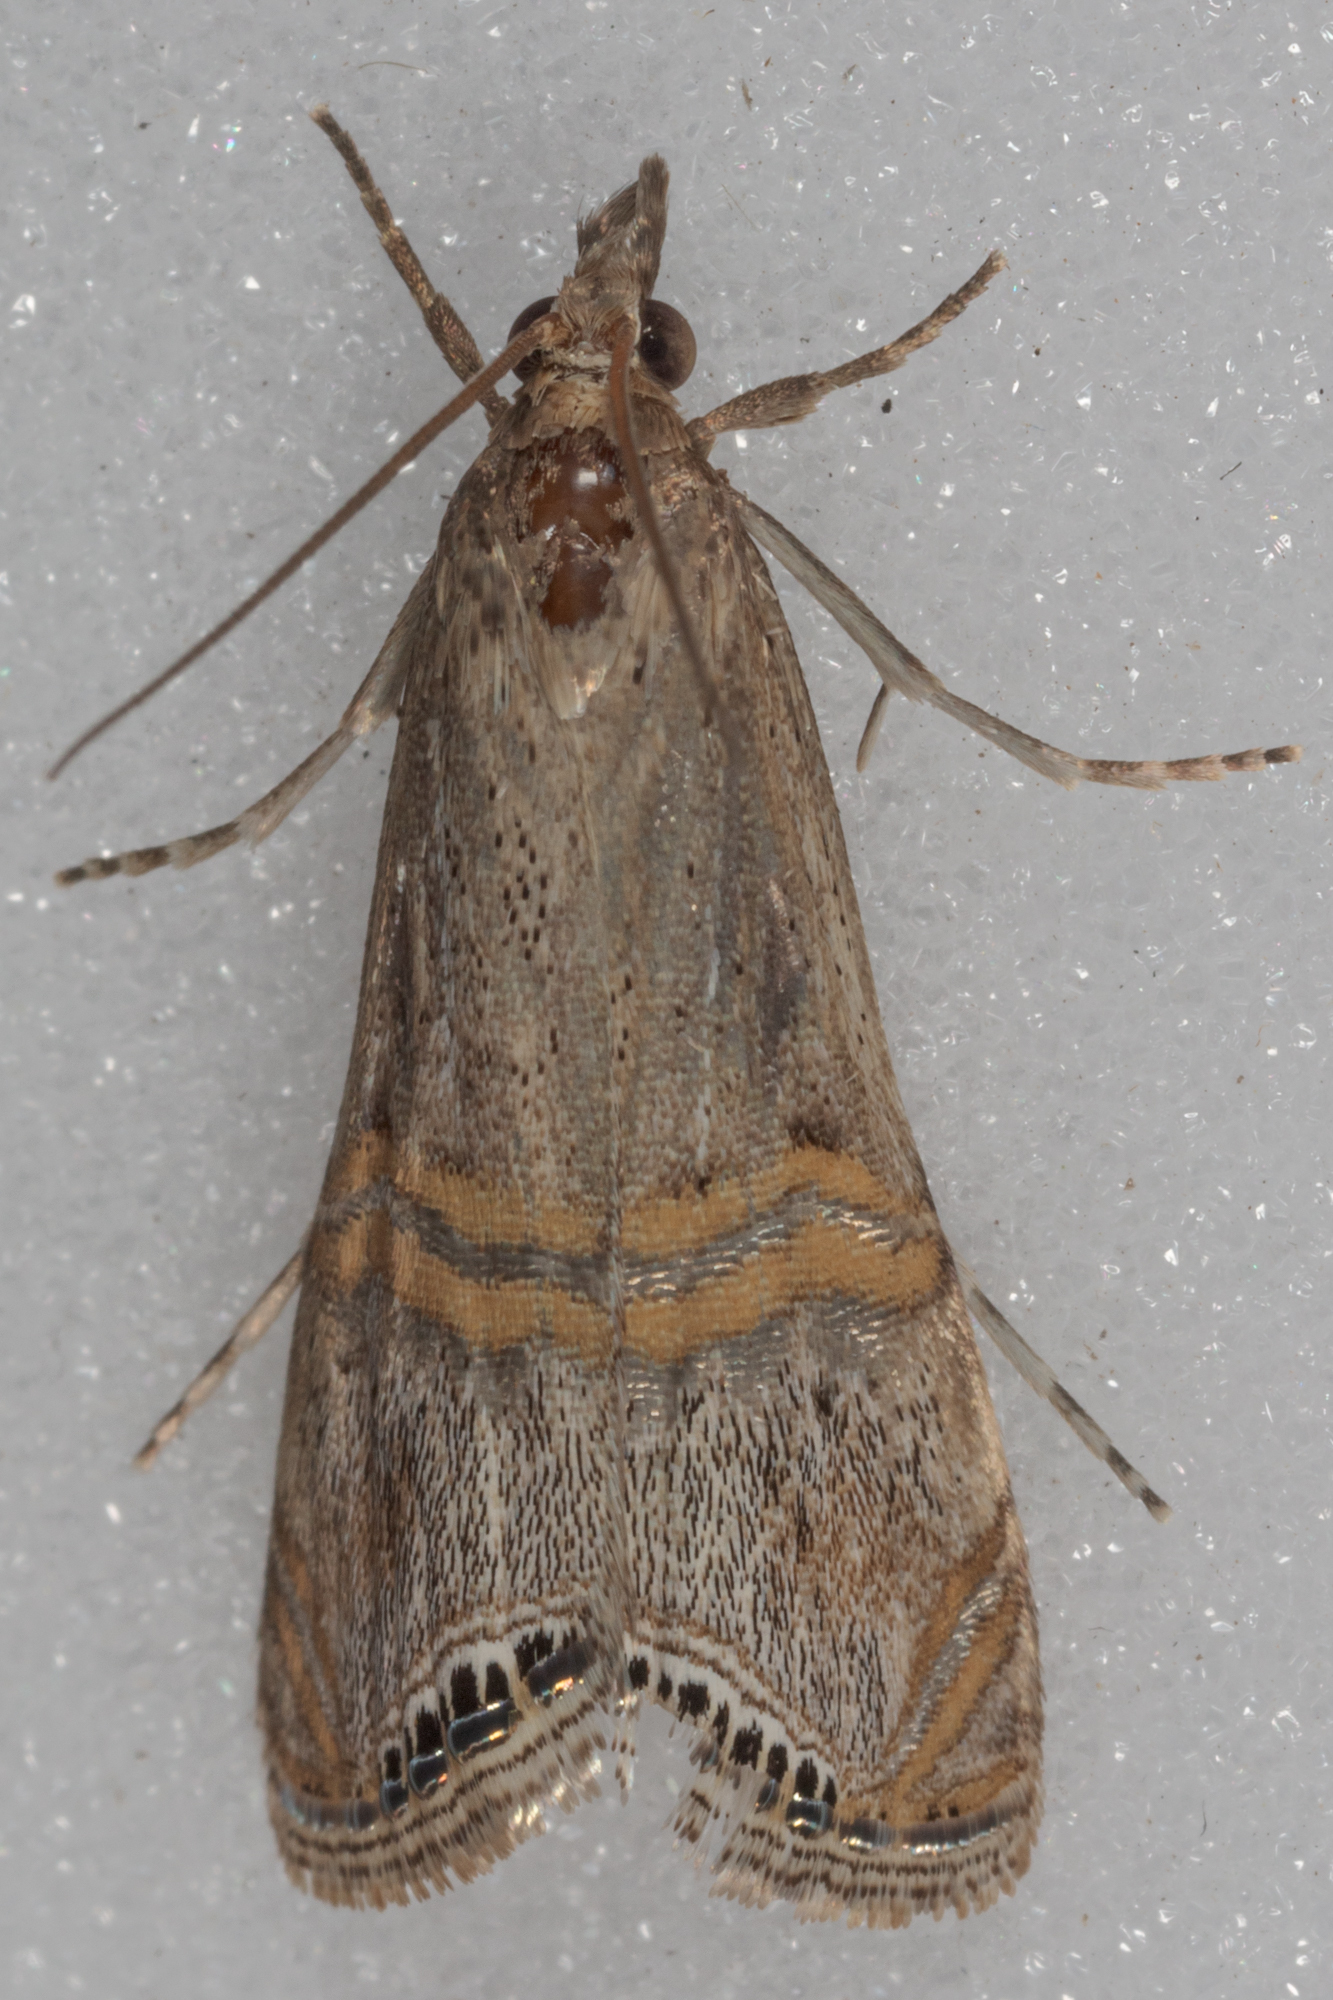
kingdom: Animalia
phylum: Arthropoda
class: Insecta
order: Lepidoptera
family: Crambidae
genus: Euchromius
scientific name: Euchromius ocellea
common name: Necklace veneer moth
